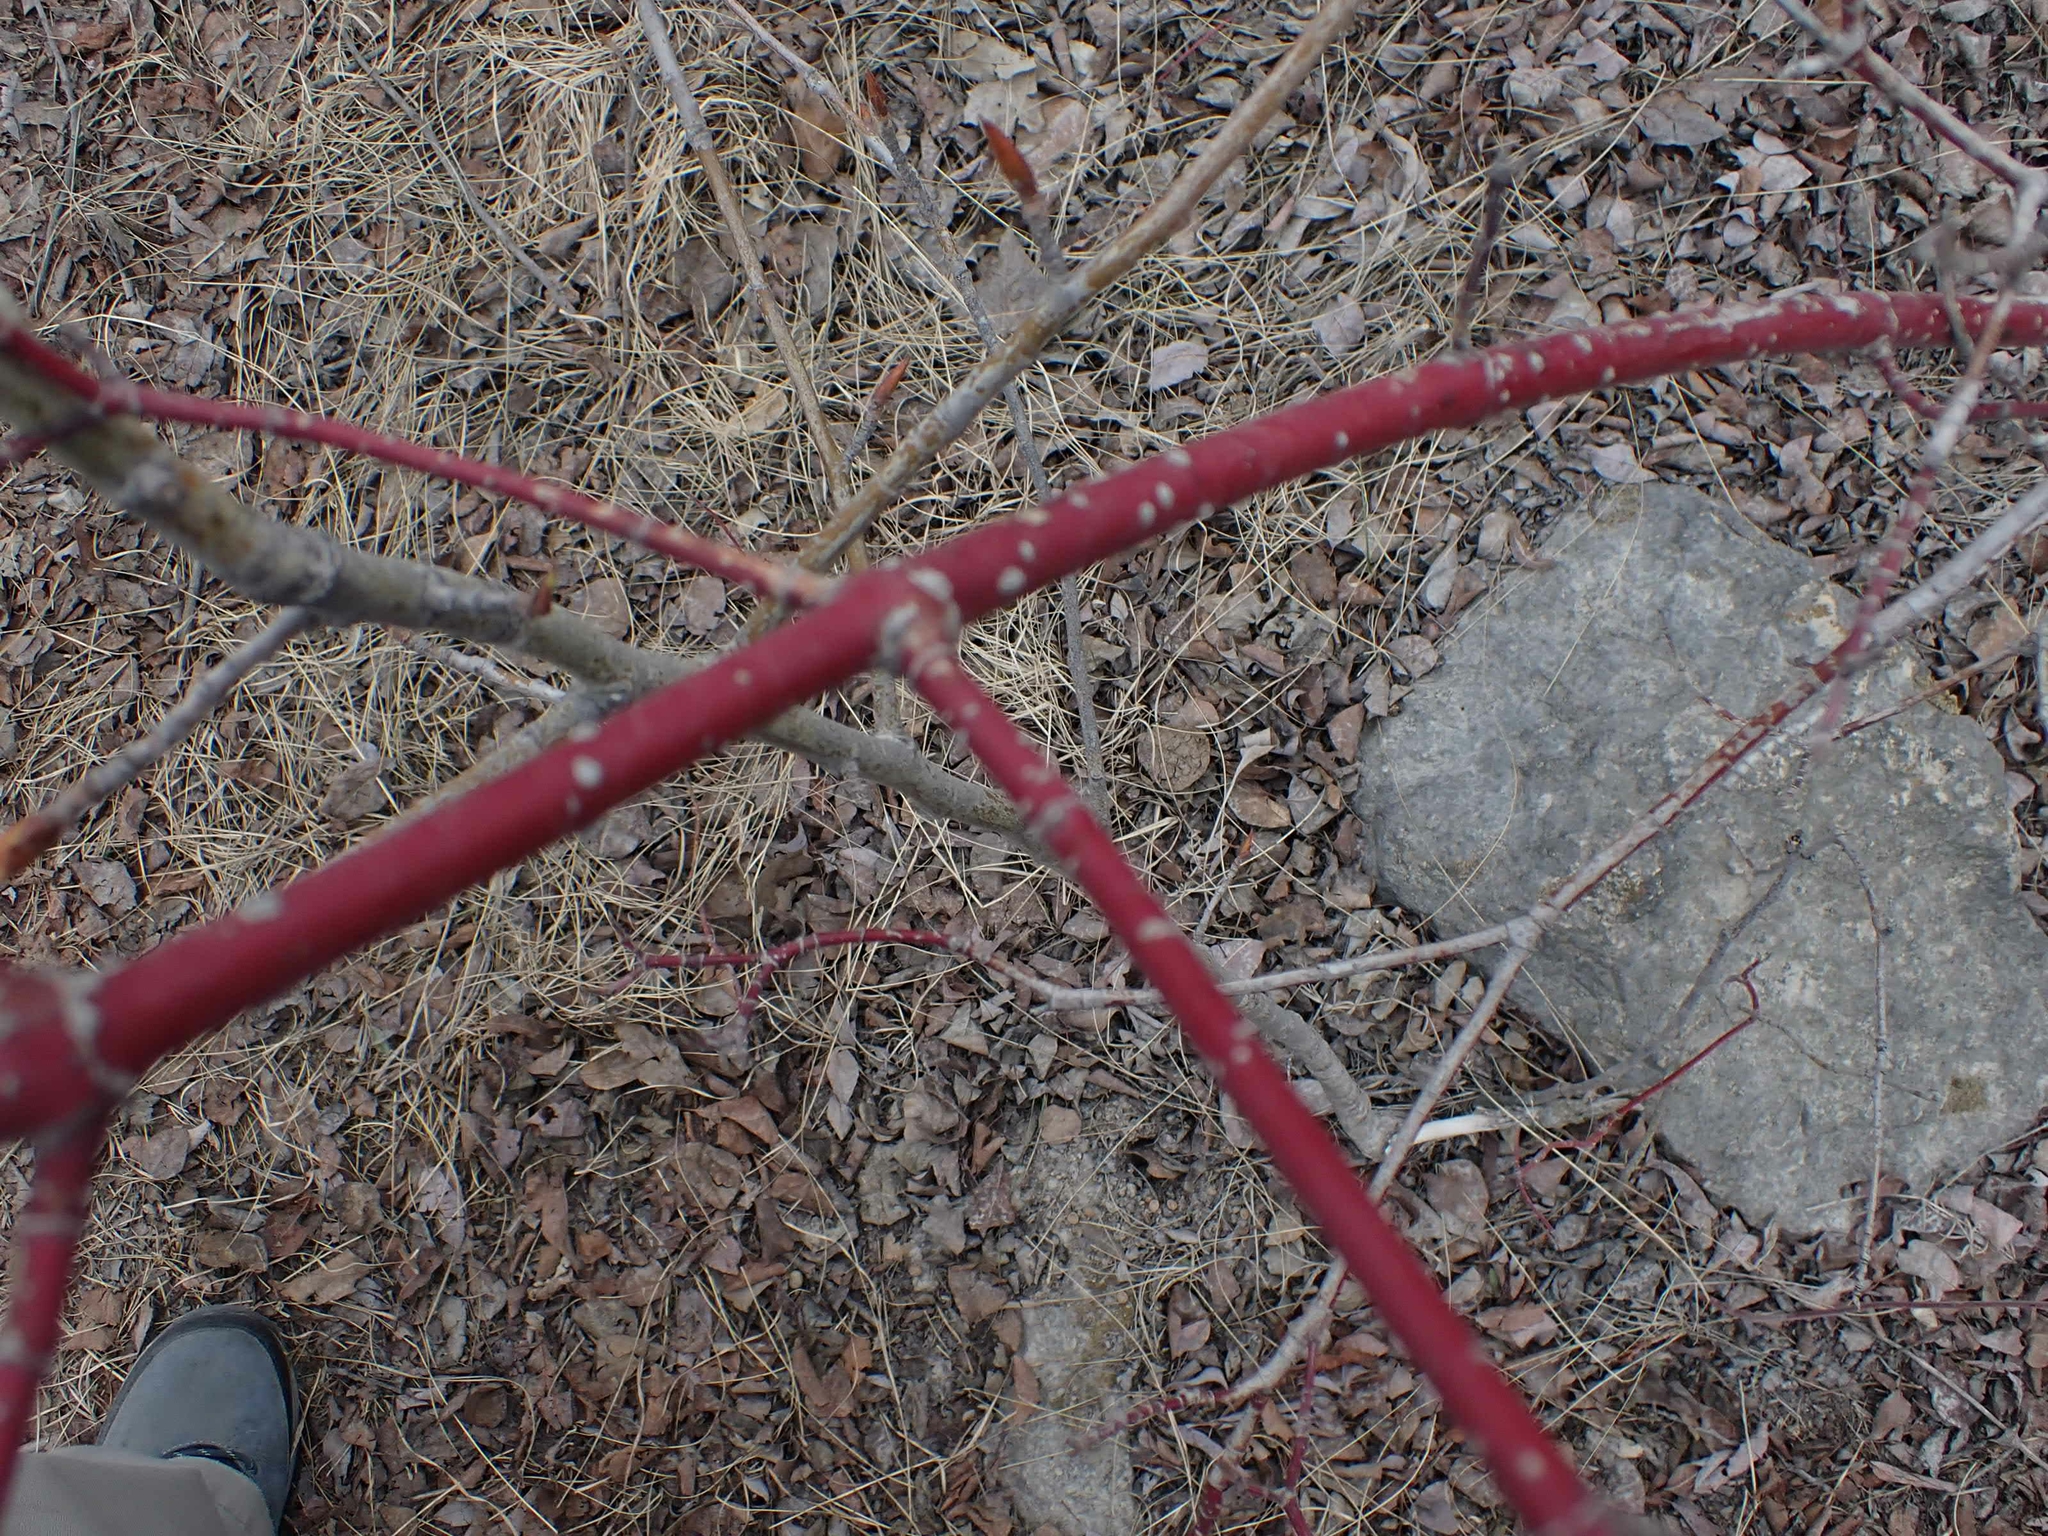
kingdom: Plantae
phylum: Tracheophyta
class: Magnoliopsida
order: Cornales
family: Cornaceae
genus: Cornus
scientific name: Cornus sericea
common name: Red-osier dogwood
